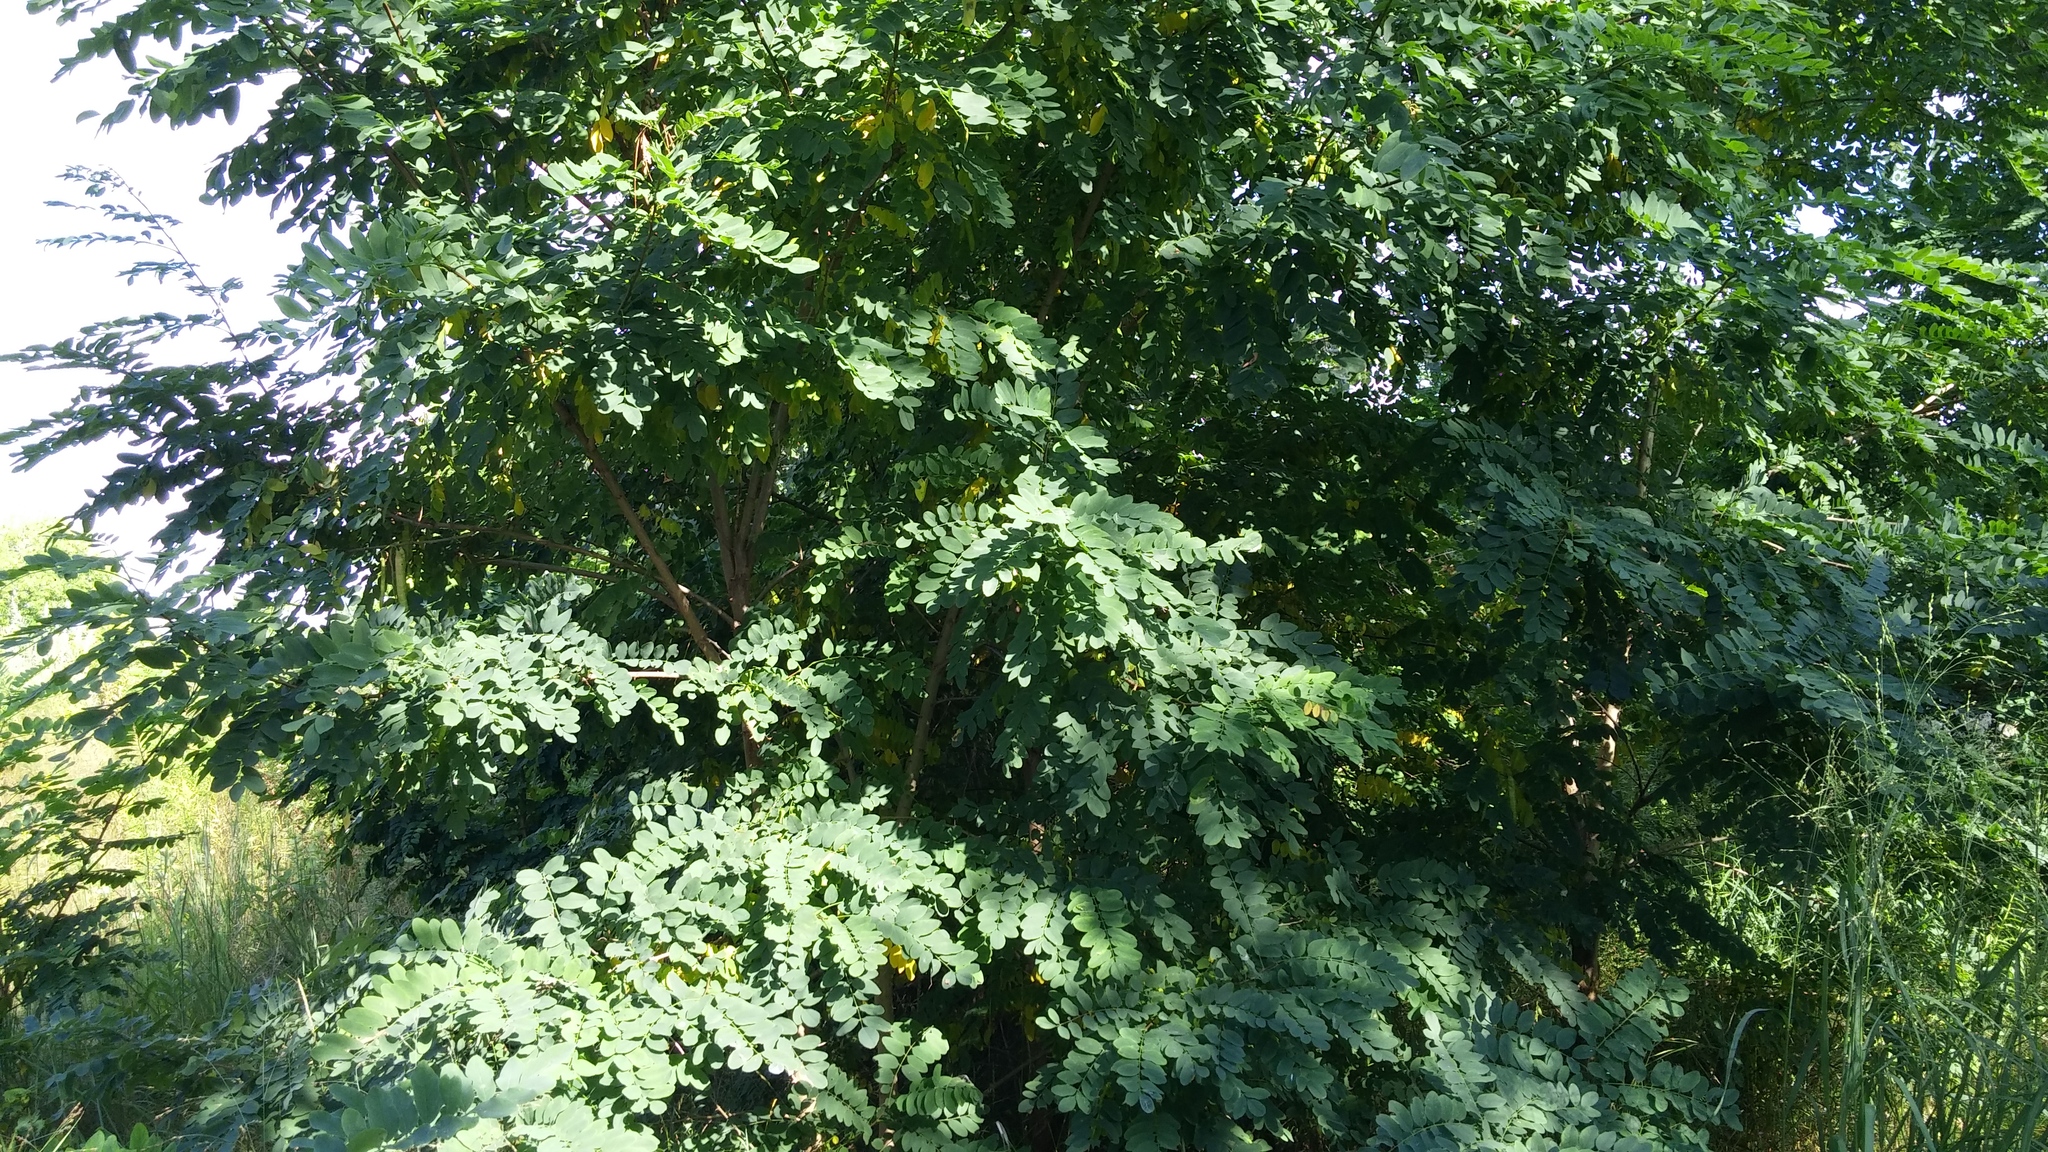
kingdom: Plantae
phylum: Tracheophyta
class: Magnoliopsida
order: Fabales
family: Fabaceae
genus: Robinia
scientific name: Robinia pseudoacacia
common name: Black locust
